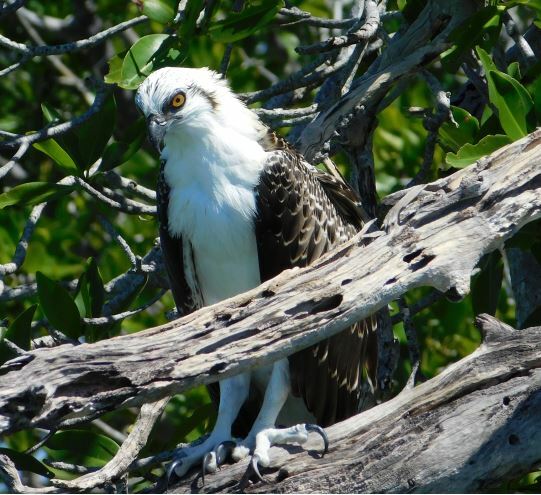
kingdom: Animalia
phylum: Chordata
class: Aves
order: Accipitriformes
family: Pandionidae
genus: Pandion
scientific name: Pandion haliaetus
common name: Osprey
